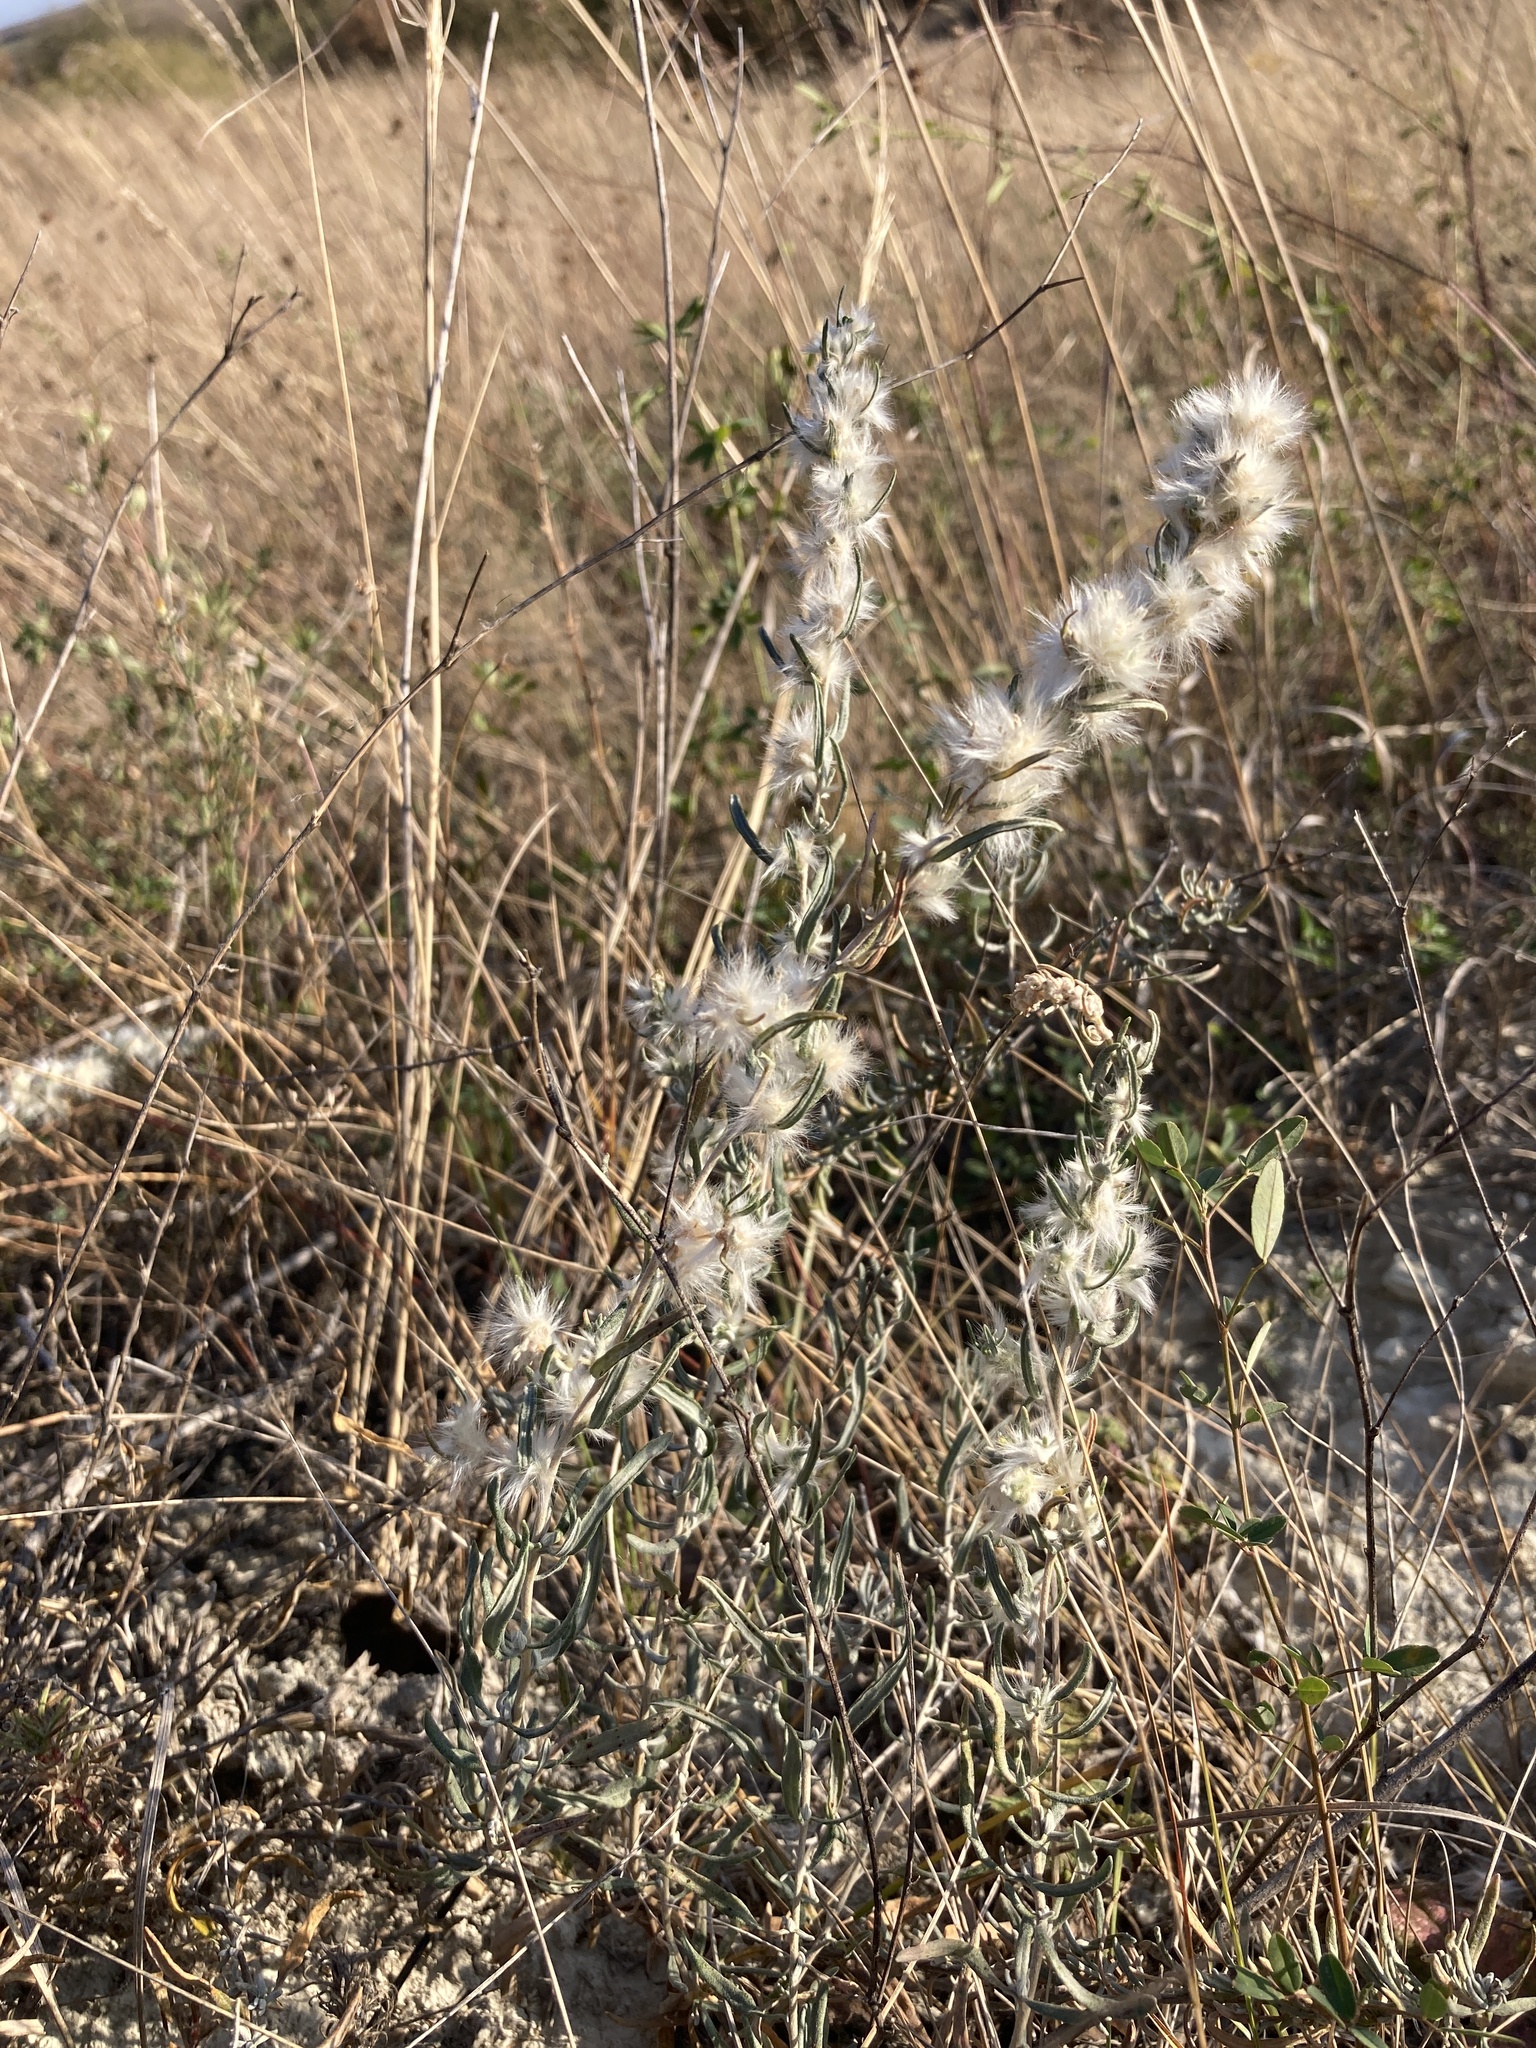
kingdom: Plantae
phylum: Tracheophyta
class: Magnoliopsida
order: Caryophyllales
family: Amaranthaceae
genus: Krascheninnikovia
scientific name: Krascheninnikovia ceratoides
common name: Pamirian winterfat
